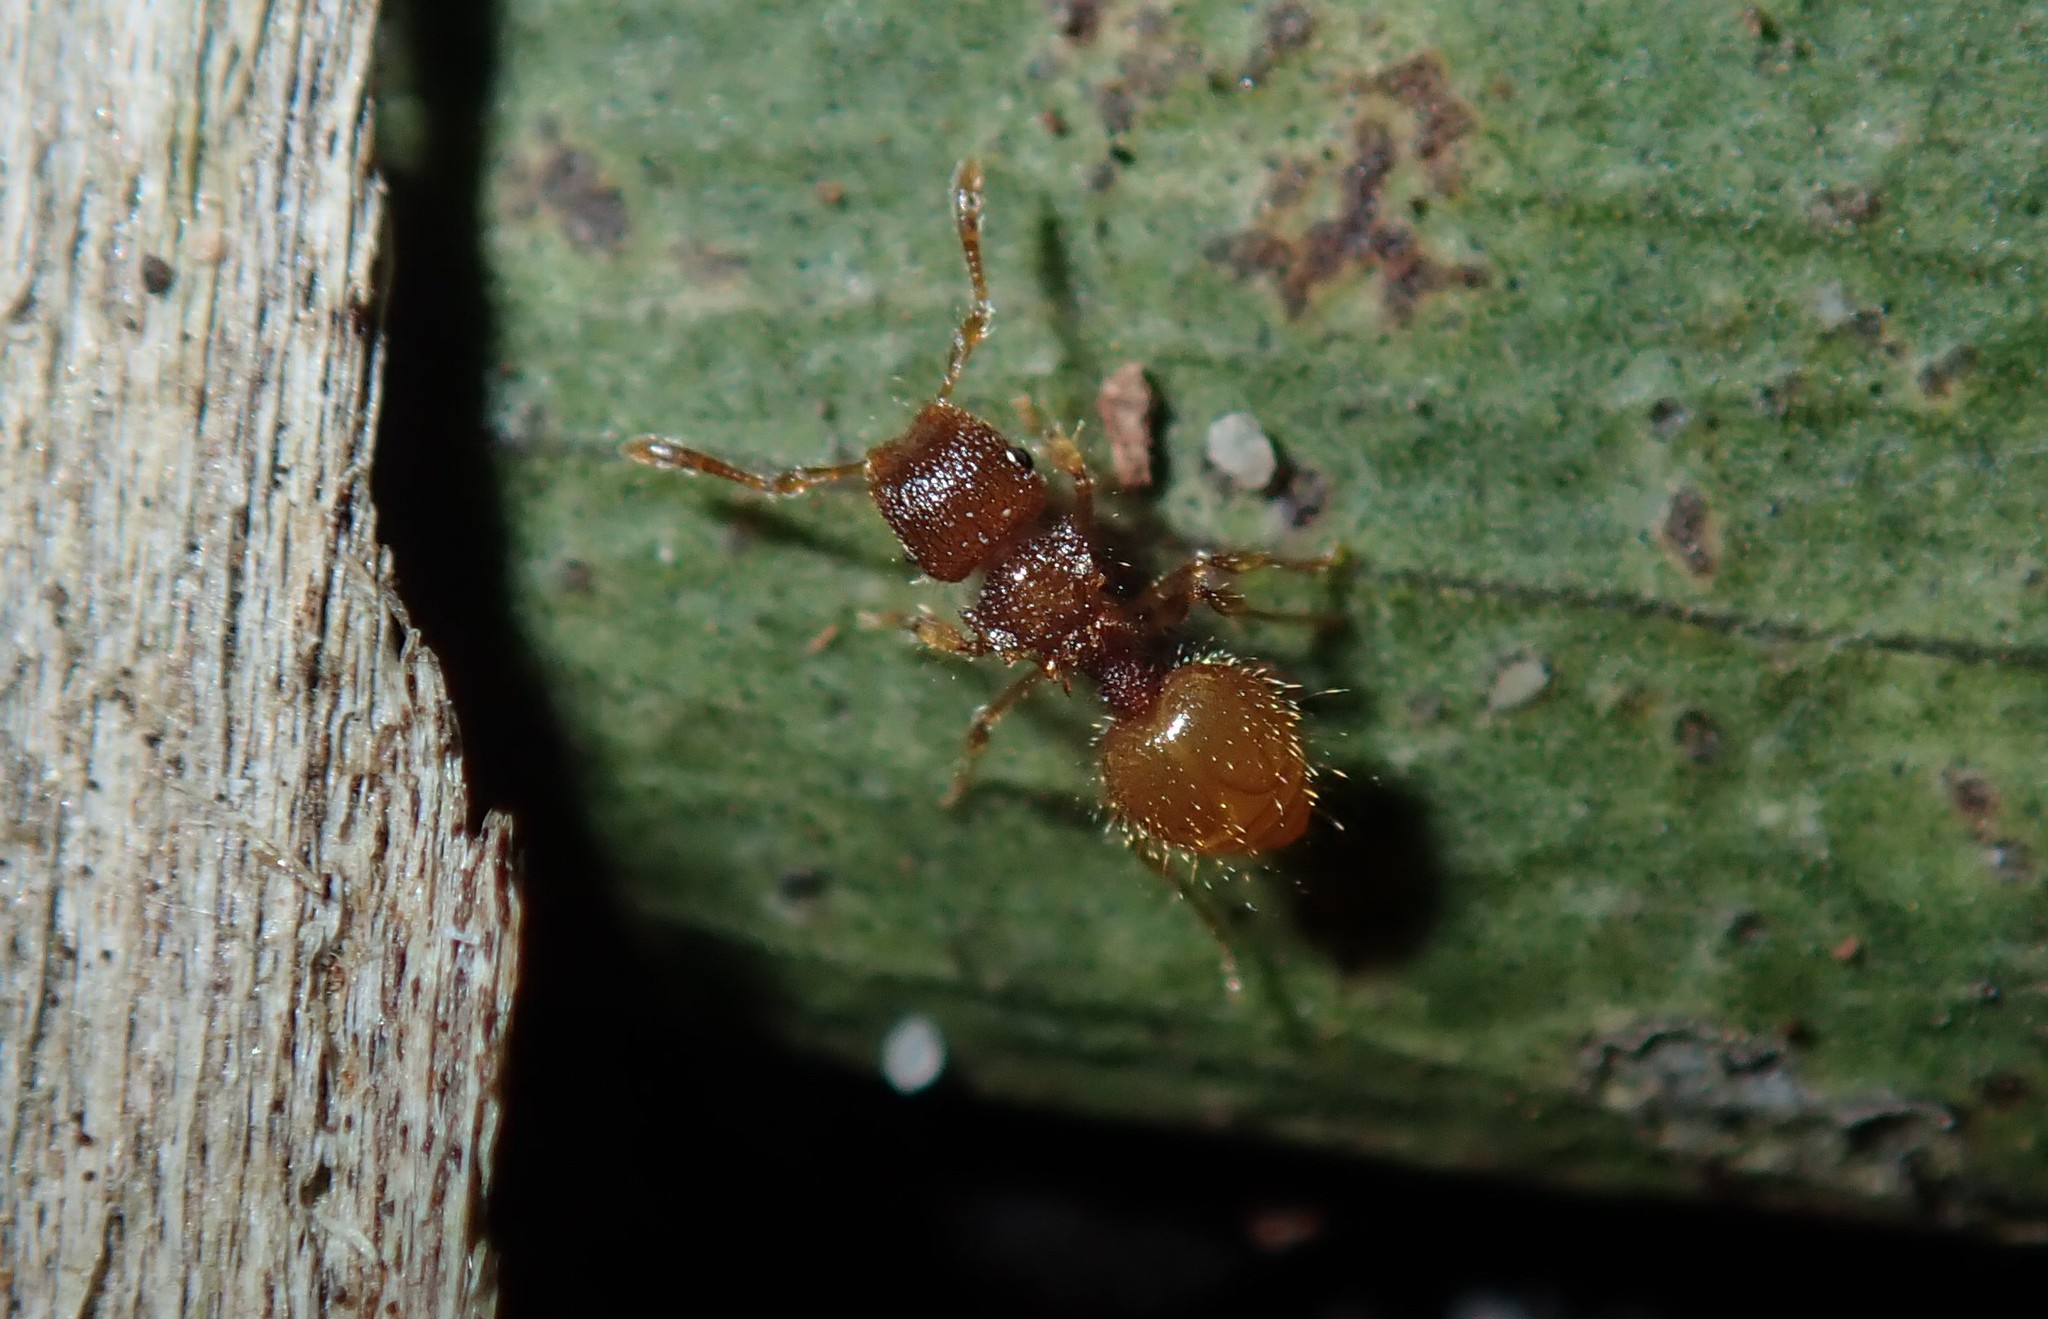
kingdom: Animalia
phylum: Arthropoda
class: Insecta
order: Hymenoptera
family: Formicidae
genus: Meranoplus
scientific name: Meranoplus minor
